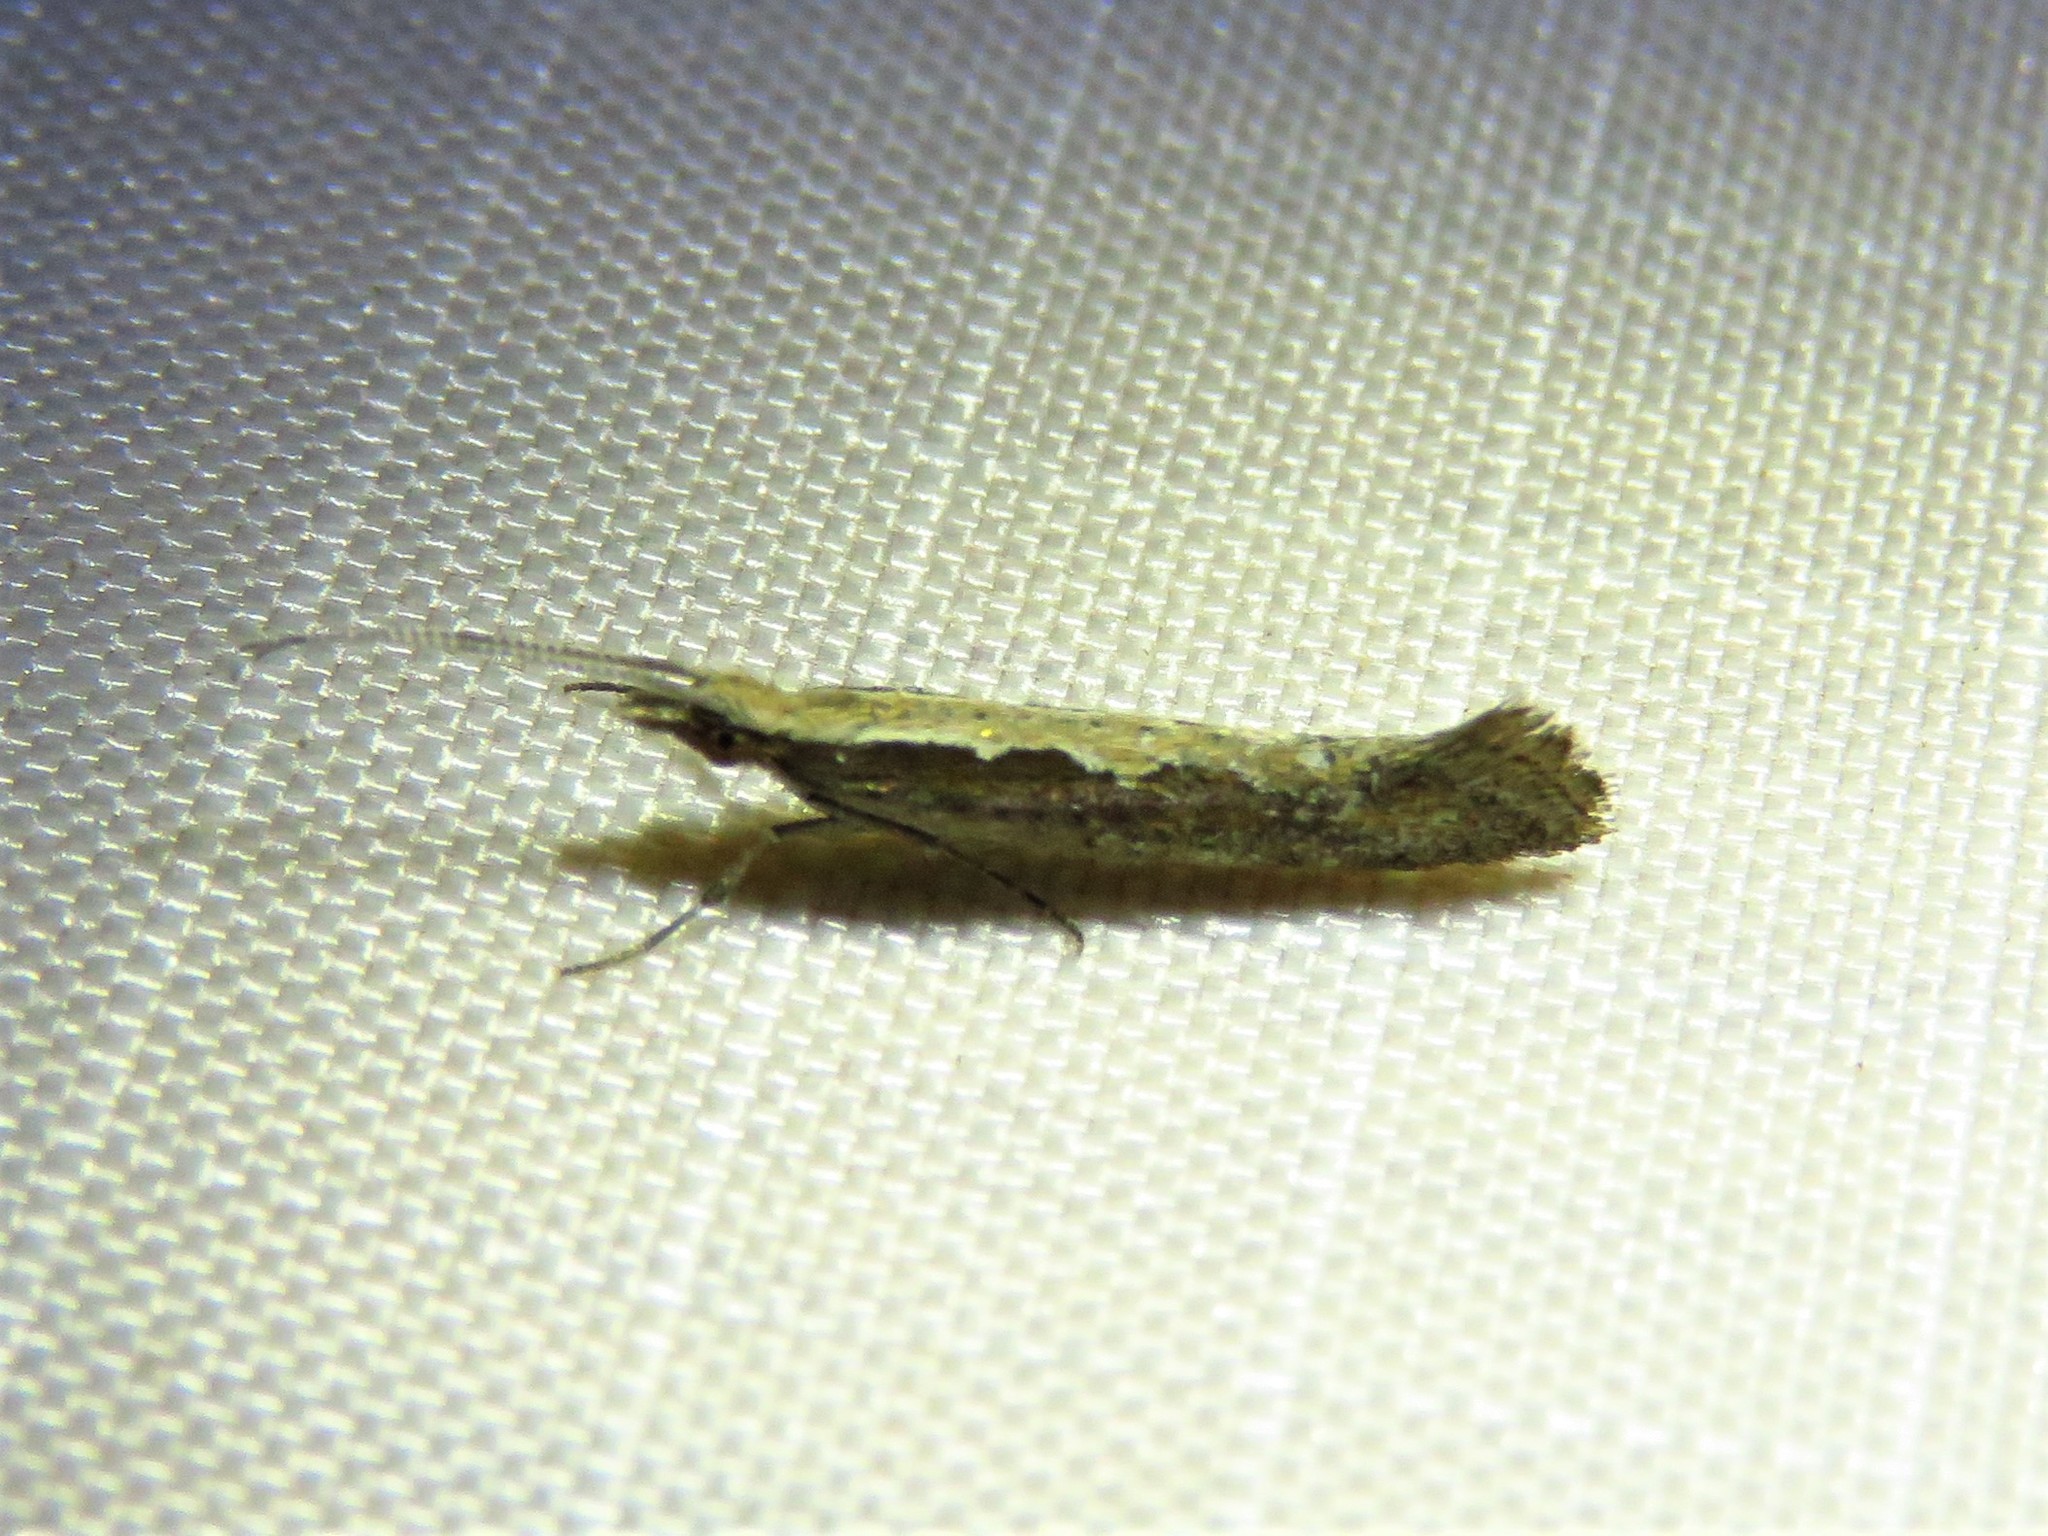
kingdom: Animalia
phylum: Arthropoda
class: Insecta
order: Lepidoptera
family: Plutellidae
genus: Plutella
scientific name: Plutella xylostella
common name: Diamond-back moth
